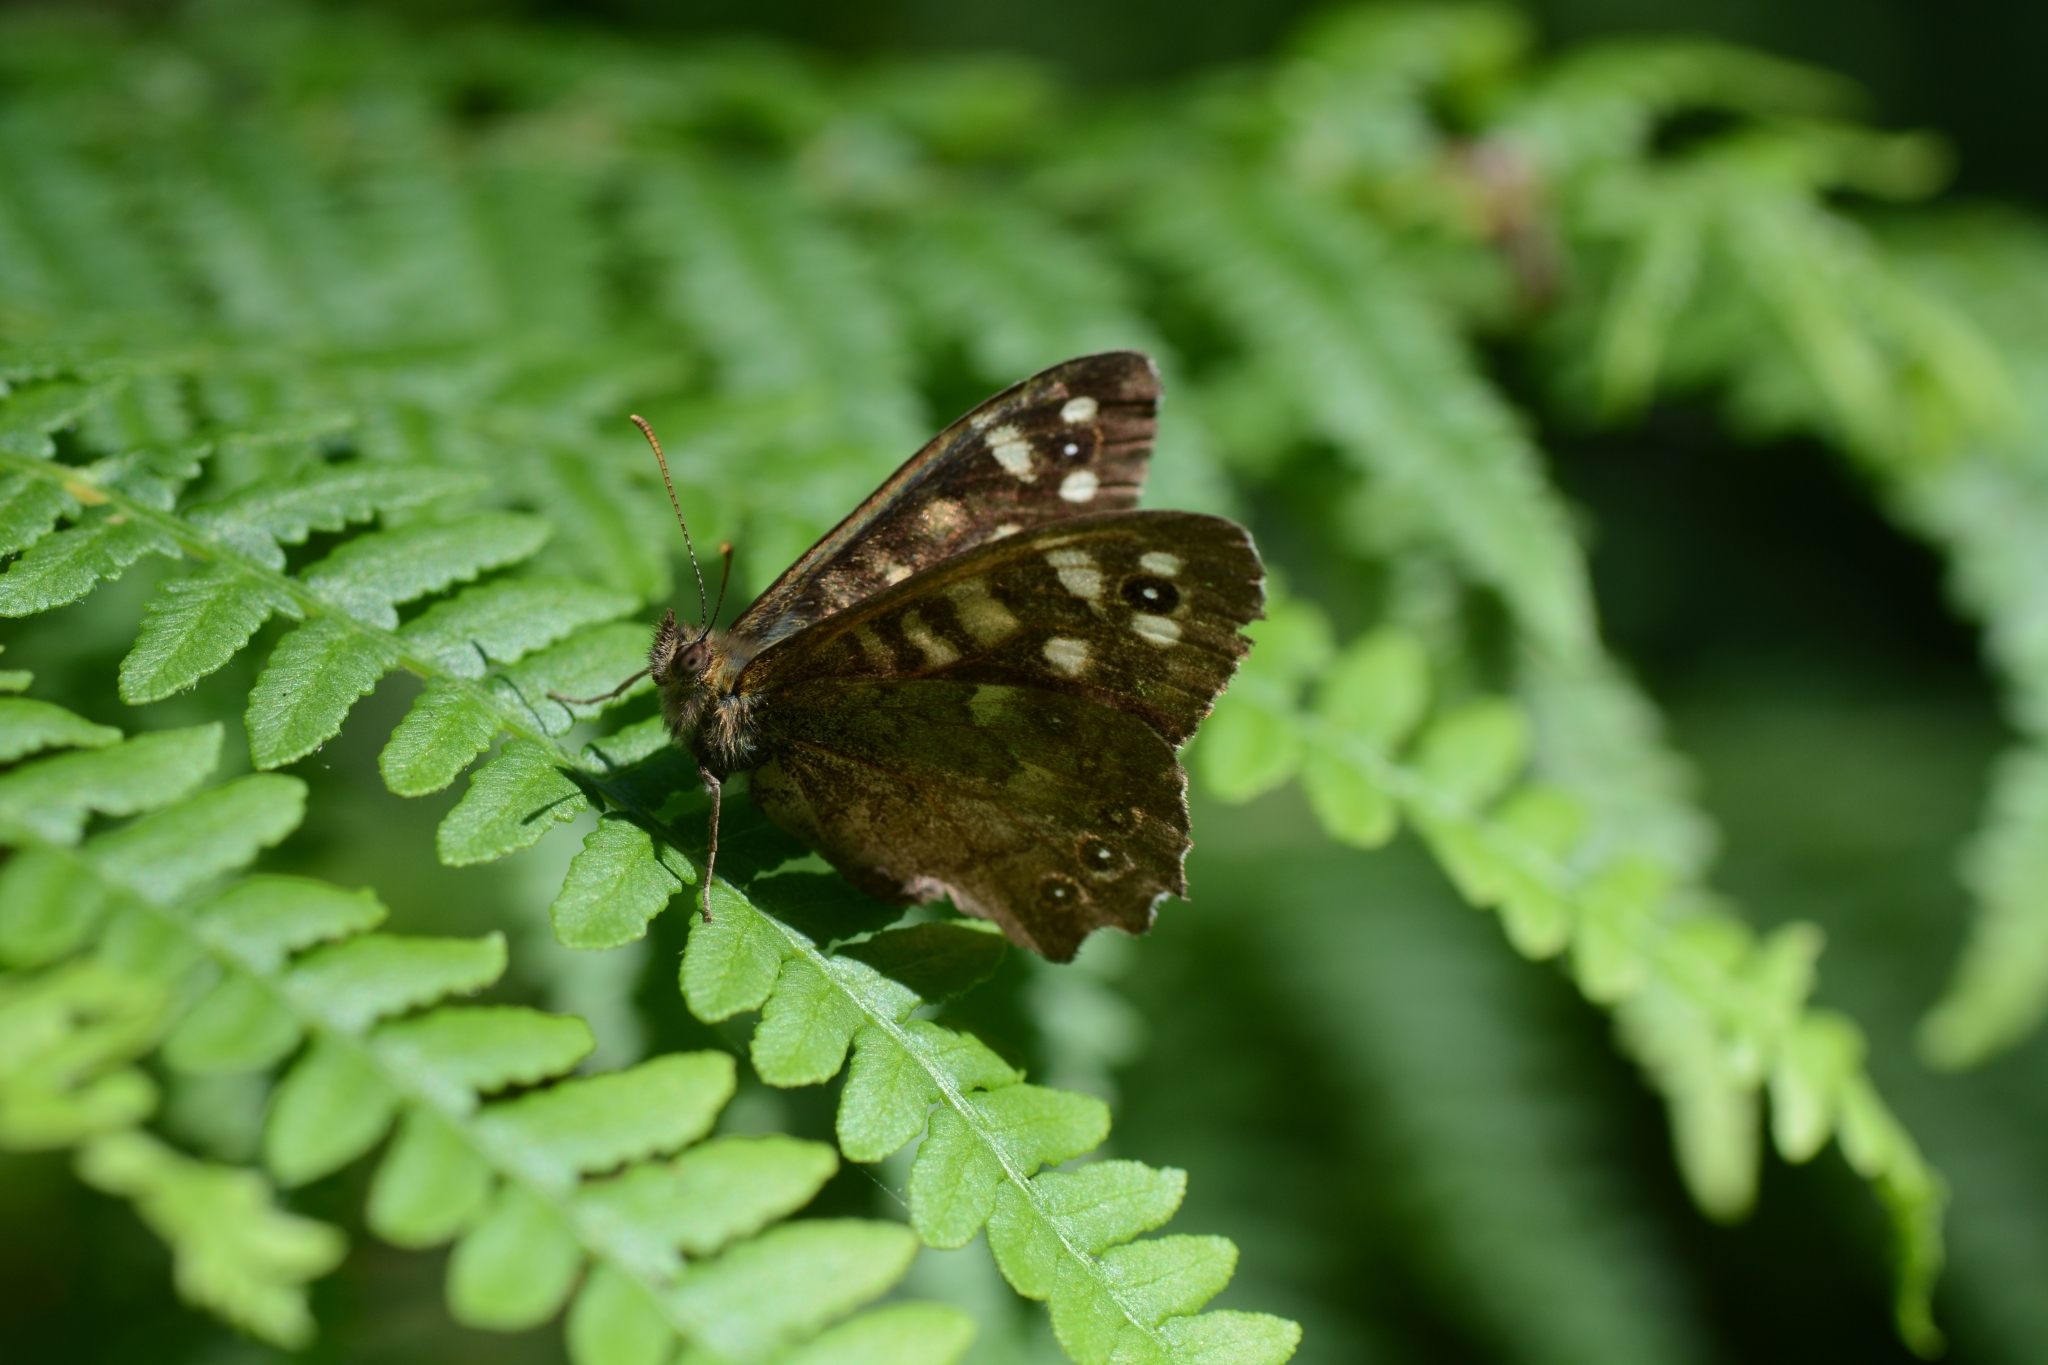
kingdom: Animalia
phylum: Arthropoda
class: Insecta
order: Lepidoptera
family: Nymphalidae
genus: Pararge
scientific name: Pararge aegeria
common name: Speckled wood
